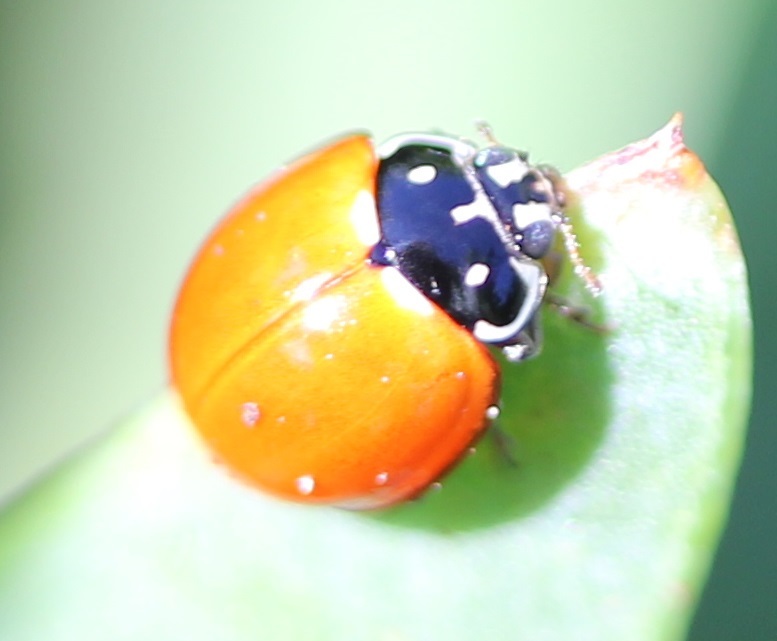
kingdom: Animalia
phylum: Arthropoda
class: Insecta
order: Coleoptera
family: Coccinellidae
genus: Cycloneda
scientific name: Cycloneda sanguinea
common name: Ladybird beetle
